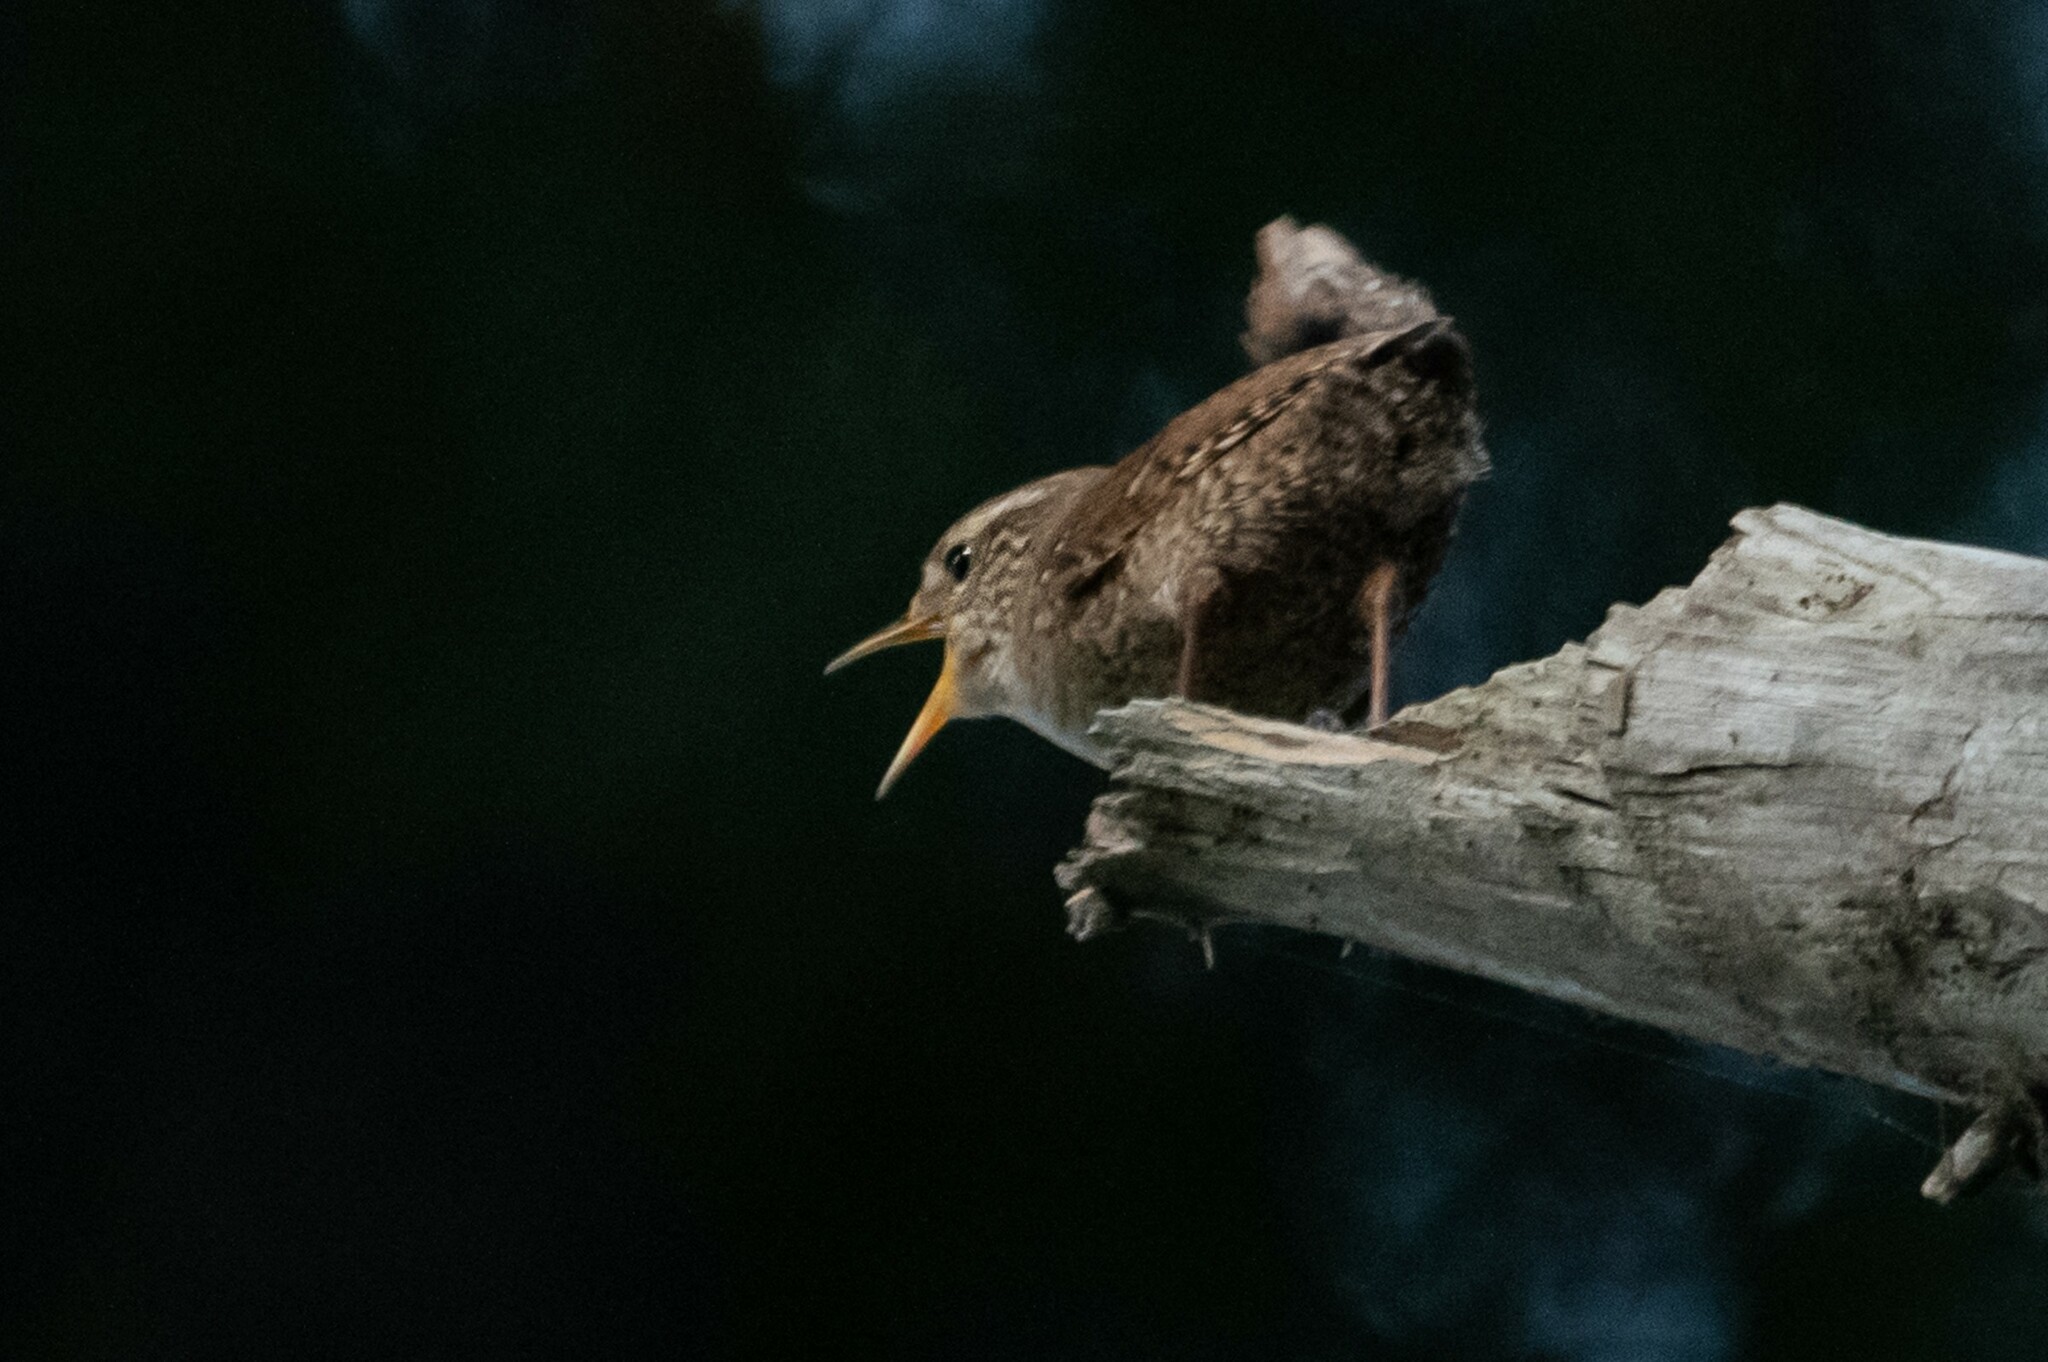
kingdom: Animalia
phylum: Chordata
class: Aves
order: Passeriformes
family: Troglodytidae
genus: Troglodytes
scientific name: Troglodytes troglodytes
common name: Eurasian wren
